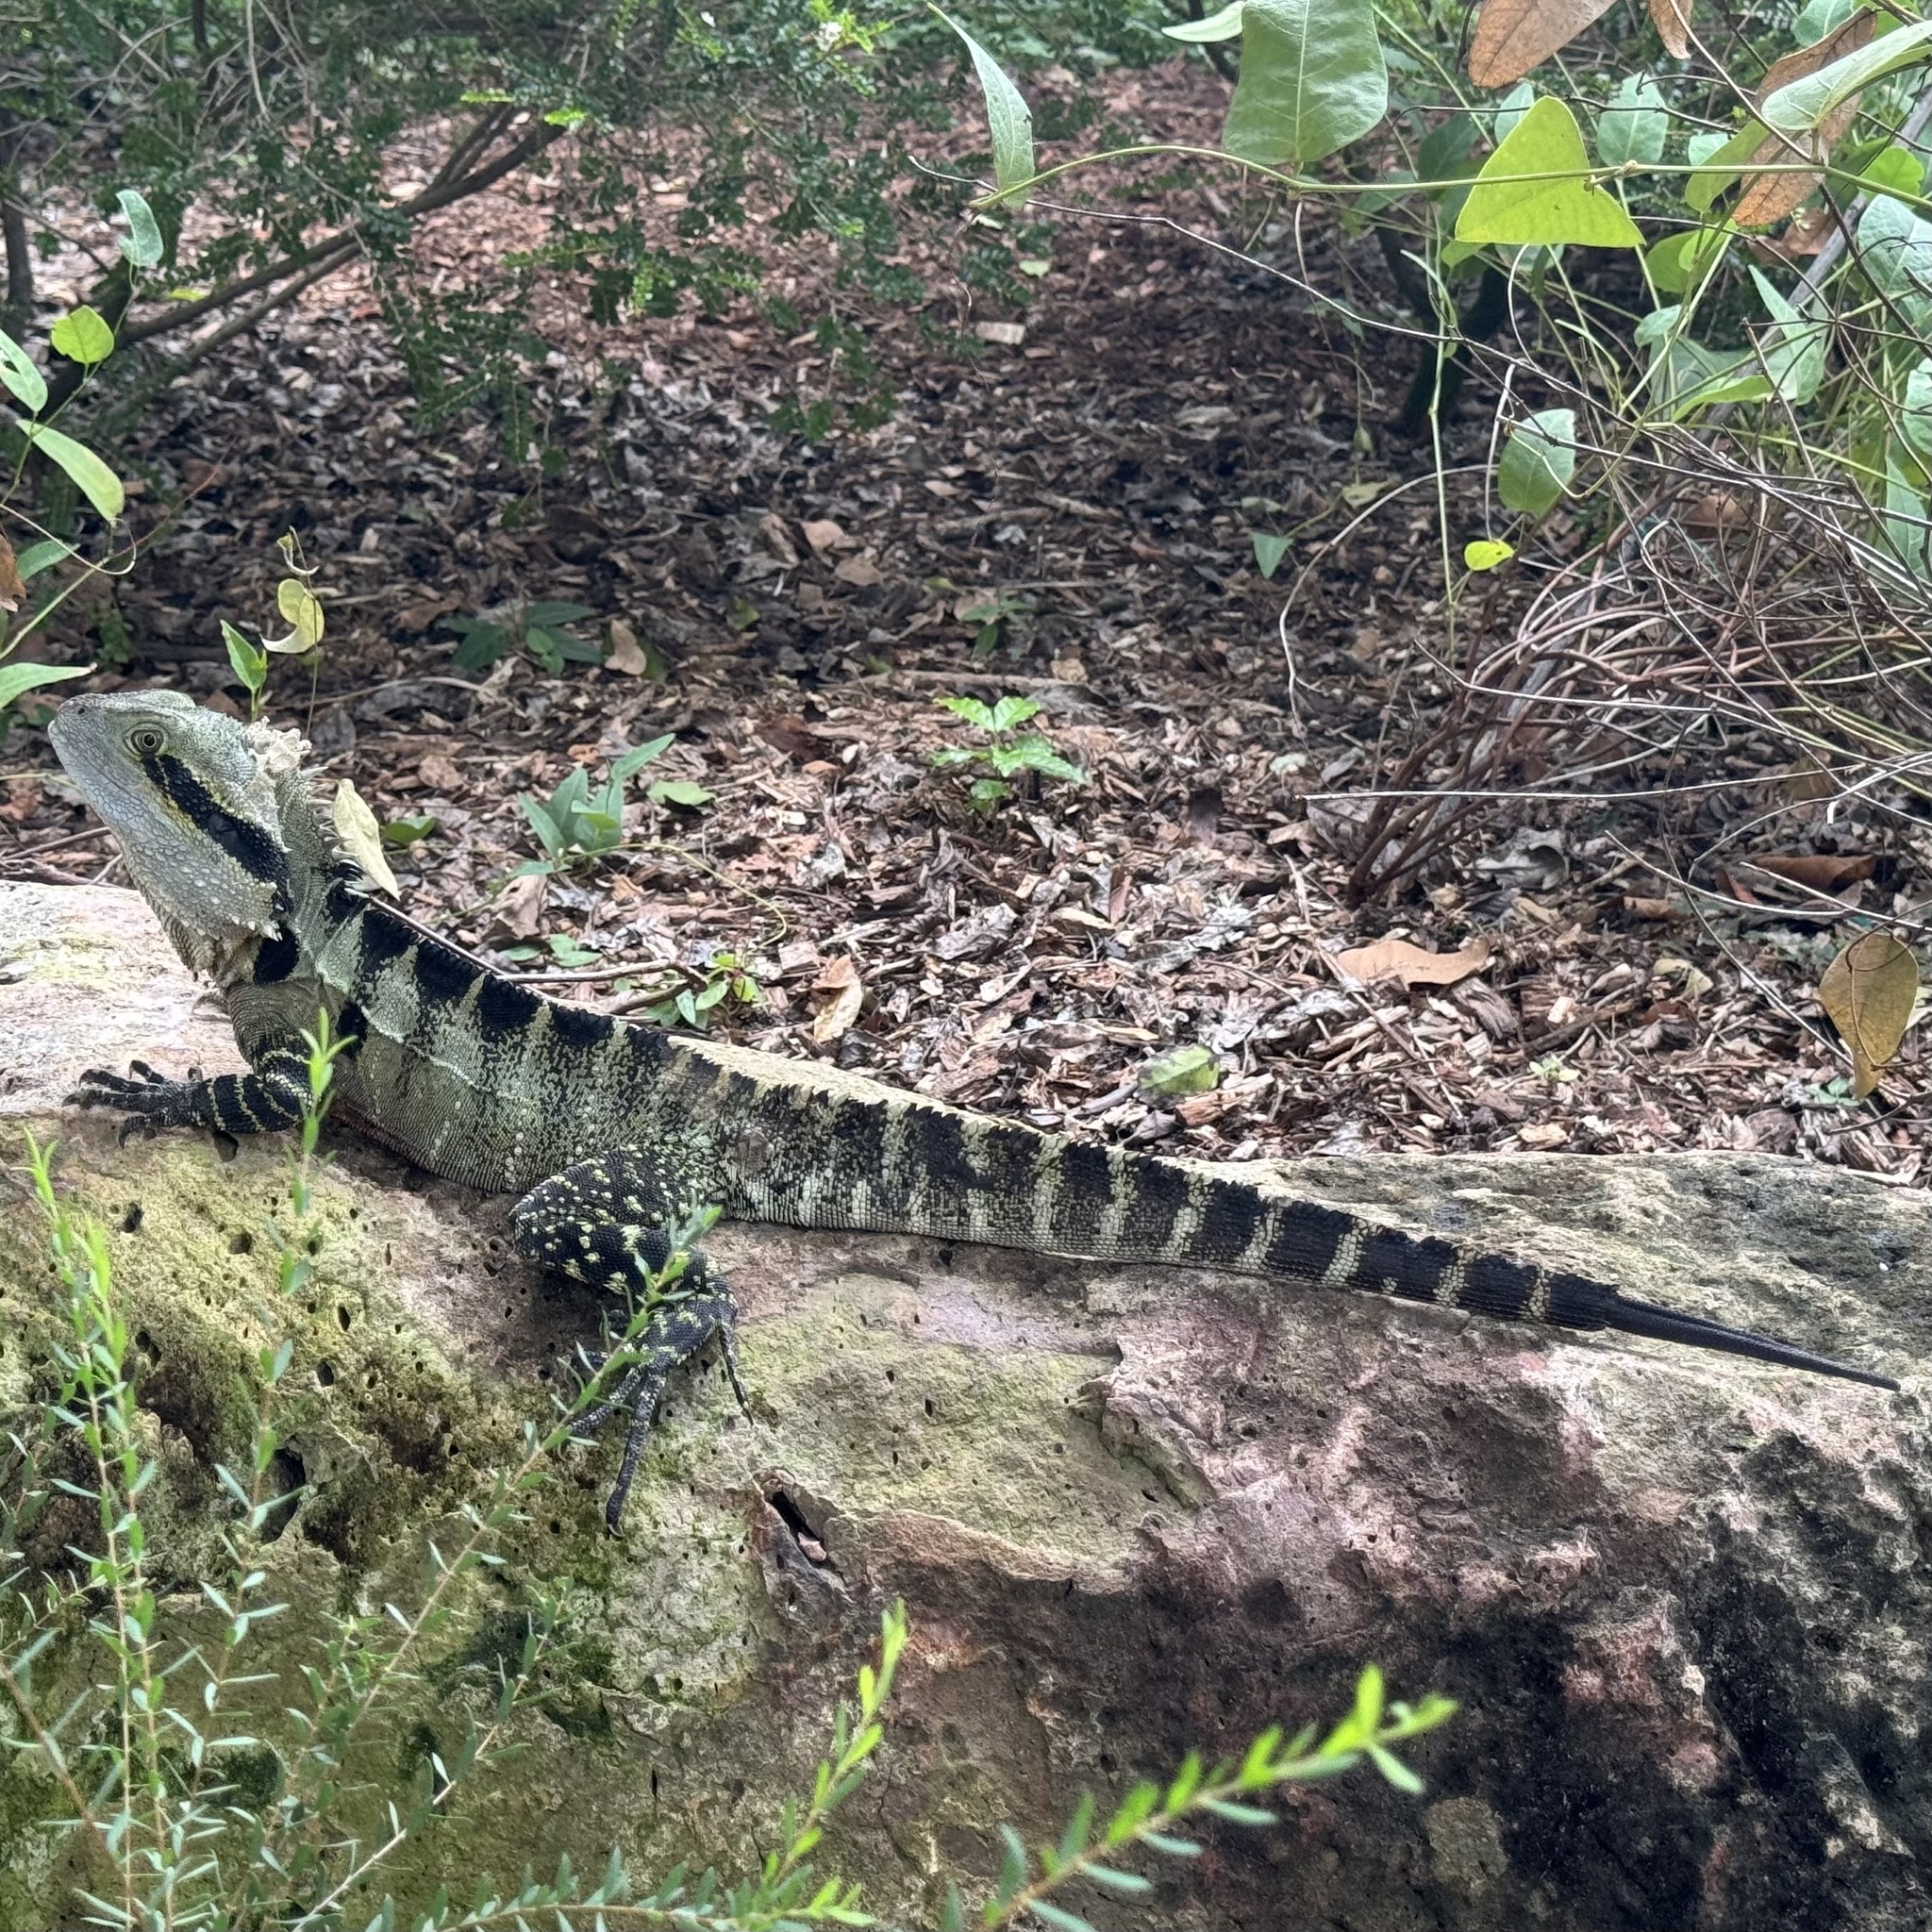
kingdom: Animalia
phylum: Chordata
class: Squamata
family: Agamidae
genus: Intellagama
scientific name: Intellagama lesueurii
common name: Eastern water dragon
